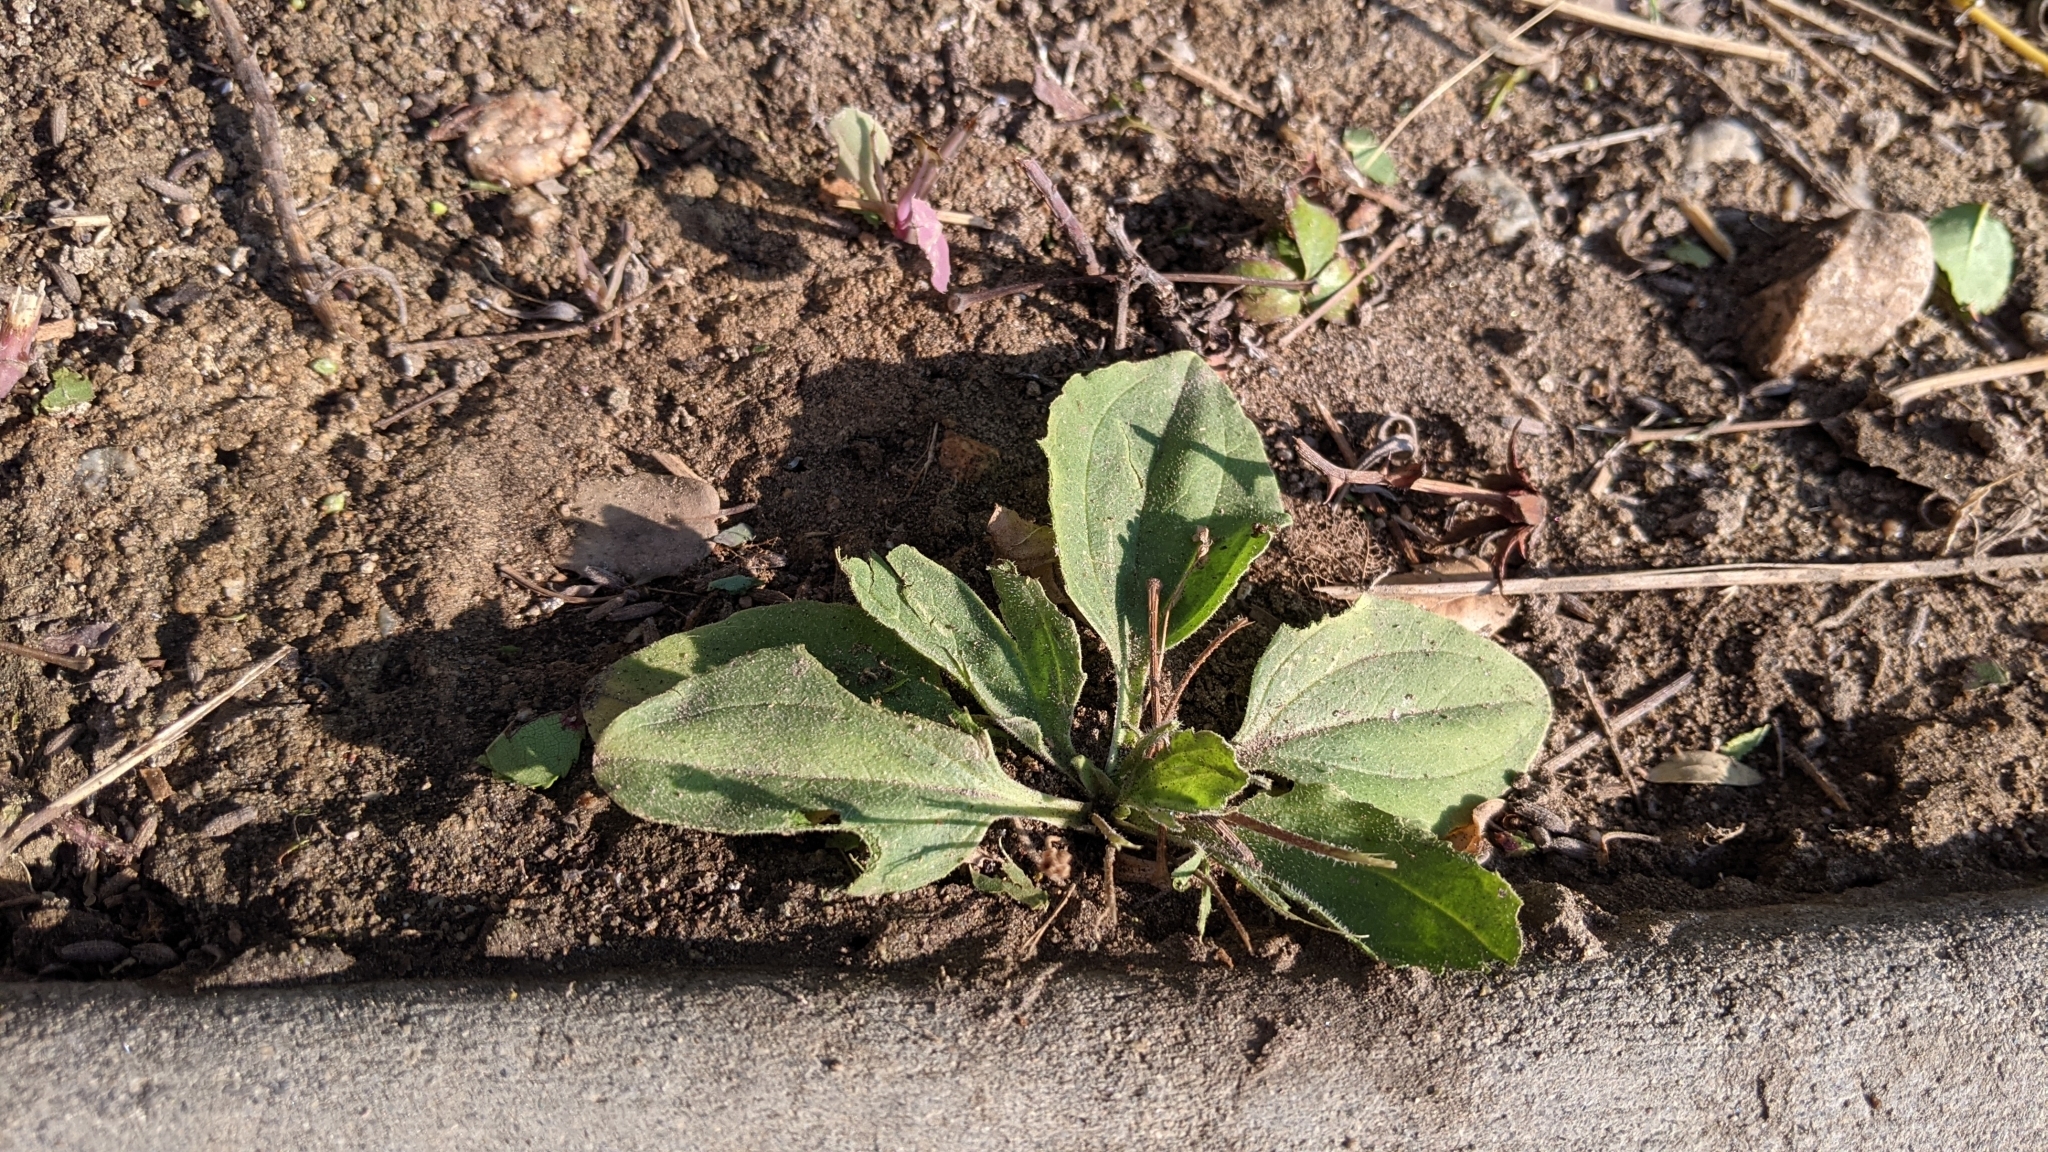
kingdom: Plantae
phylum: Tracheophyta
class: Magnoliopsida
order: Lamiales
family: Plantaginaceae
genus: Plantago
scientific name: Plantago major
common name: Common plantain
